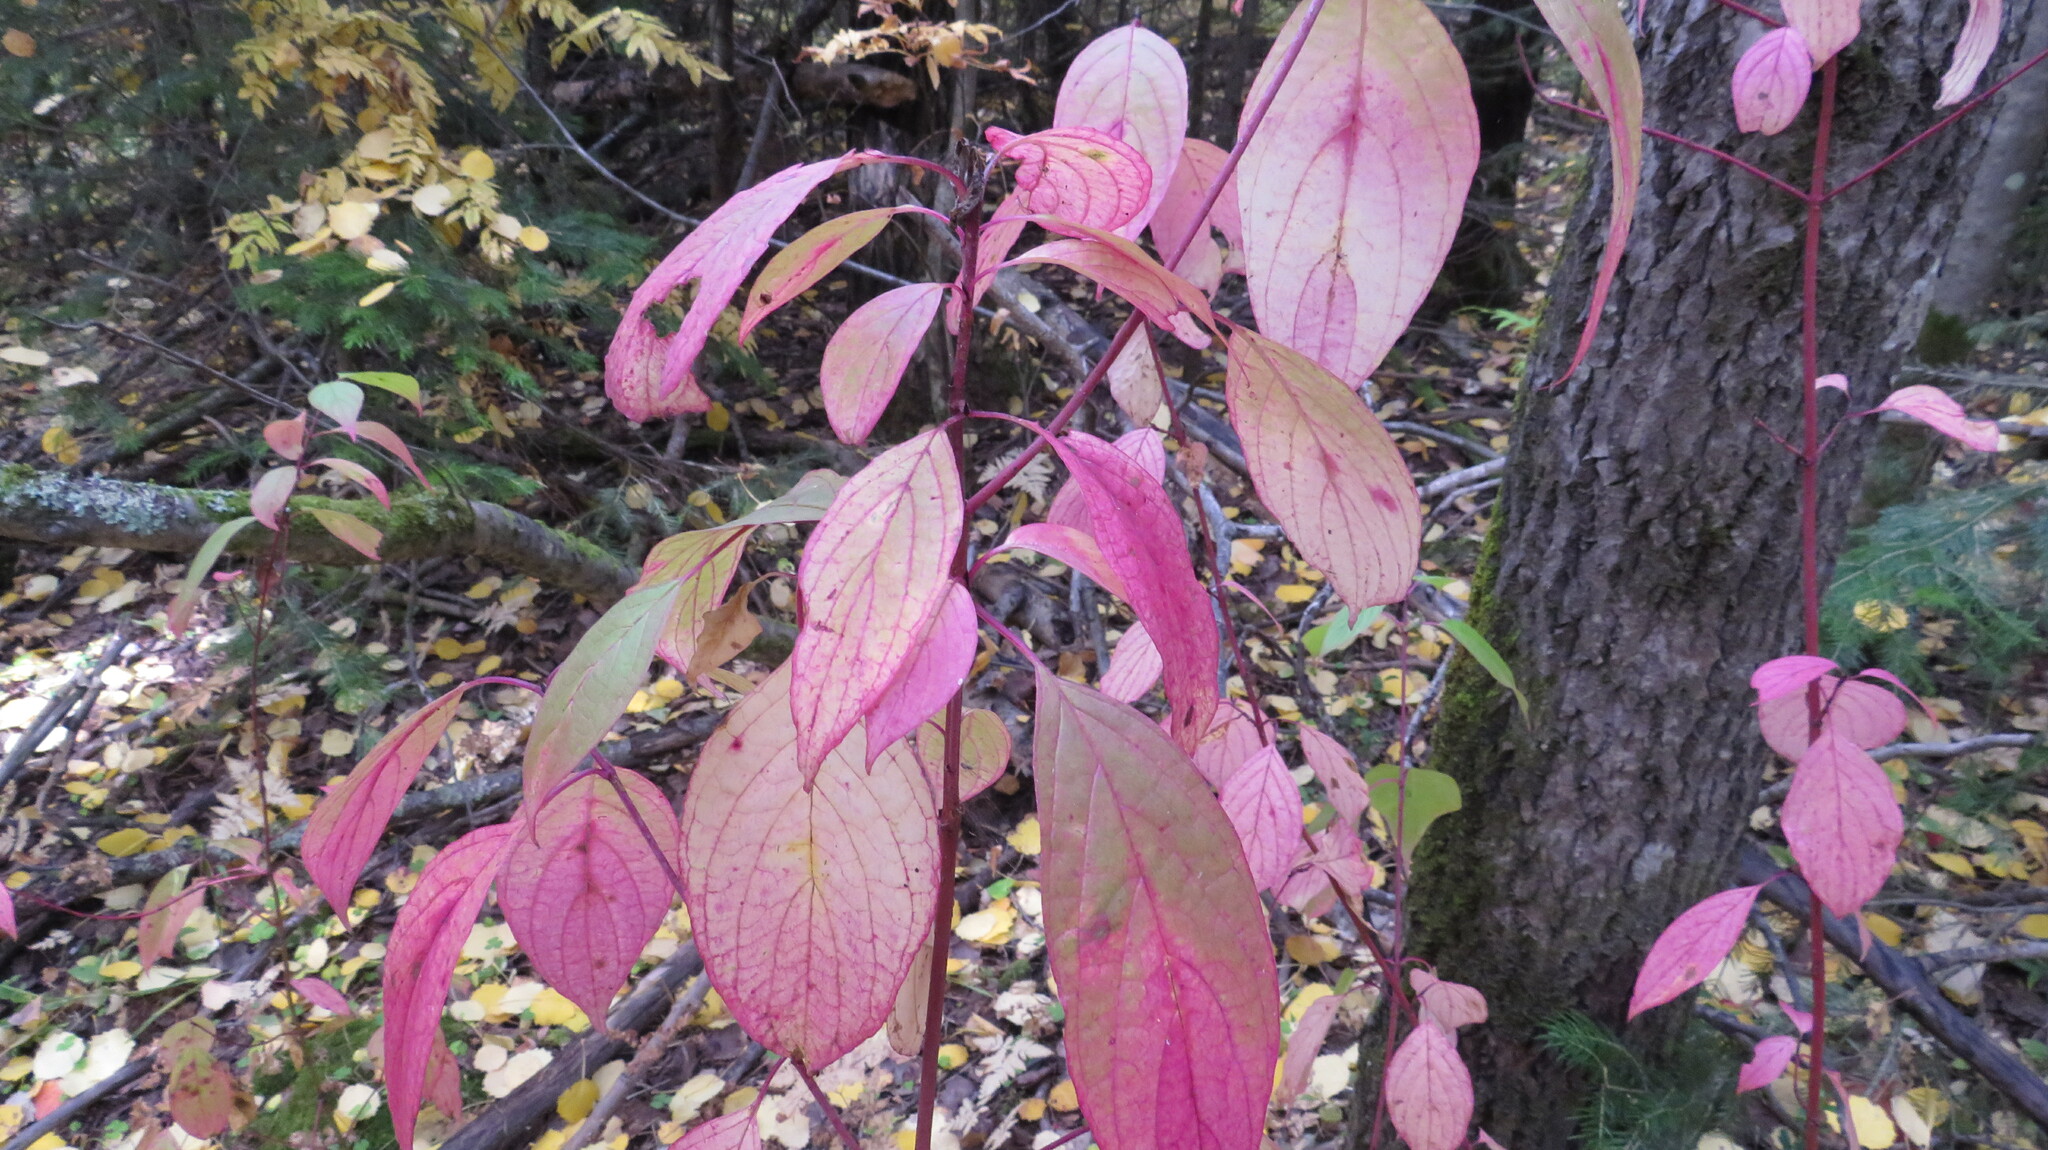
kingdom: Plantae
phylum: Tracheophyta
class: Magnoliopsida
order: Cornales
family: Cornaceae
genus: Cornus
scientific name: Cornus alba
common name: White dogwood
